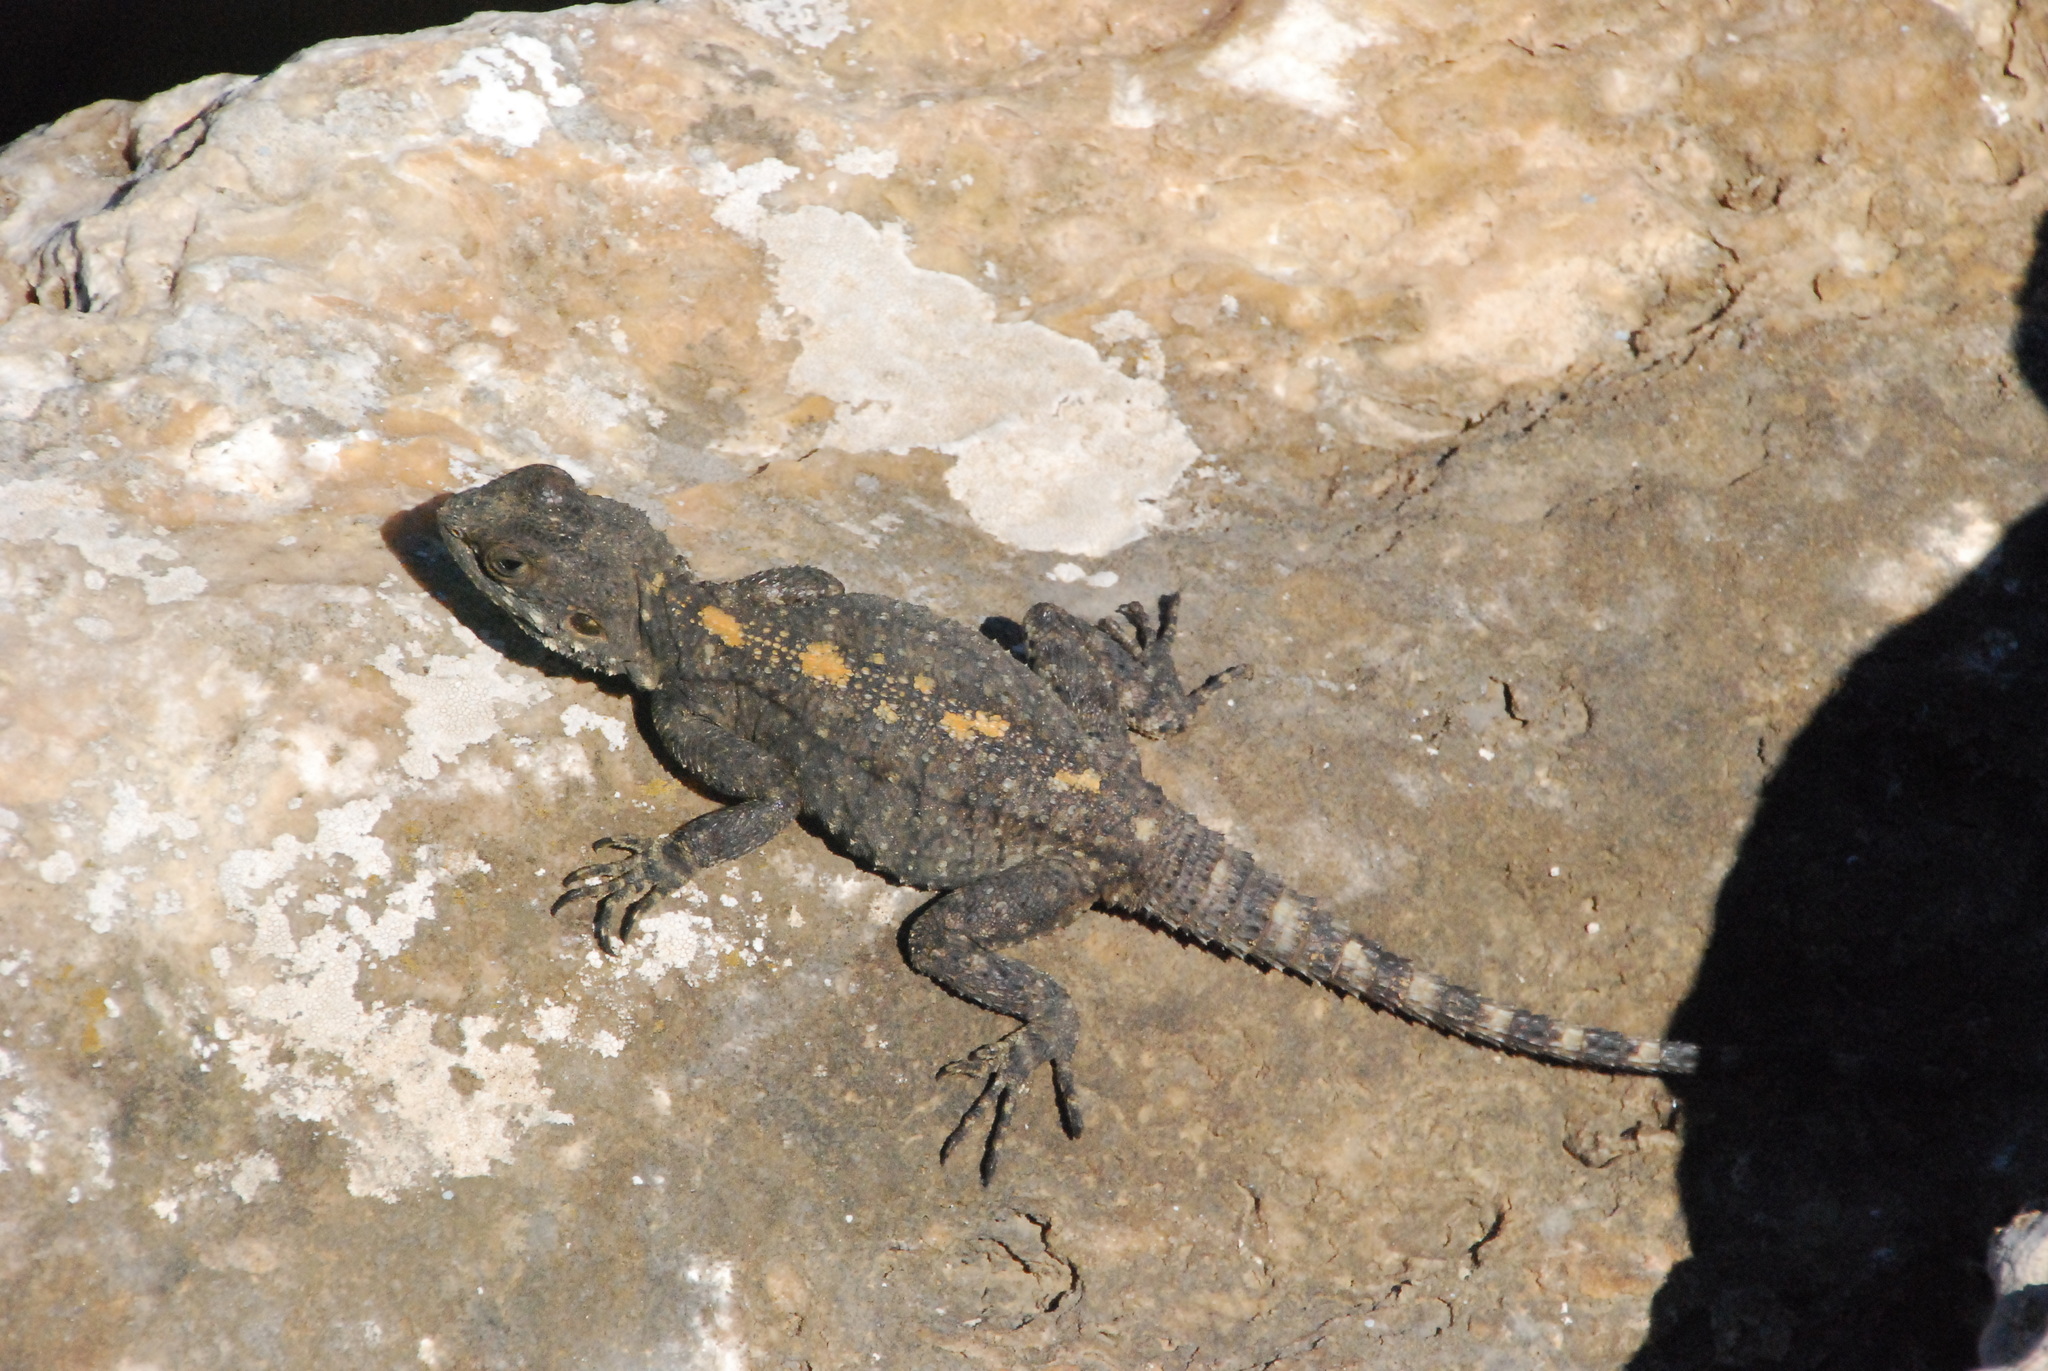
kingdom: Animalia
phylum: Chordata
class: Squamata
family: Agamidae
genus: Laudakia
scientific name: Laudakia vulgaris
